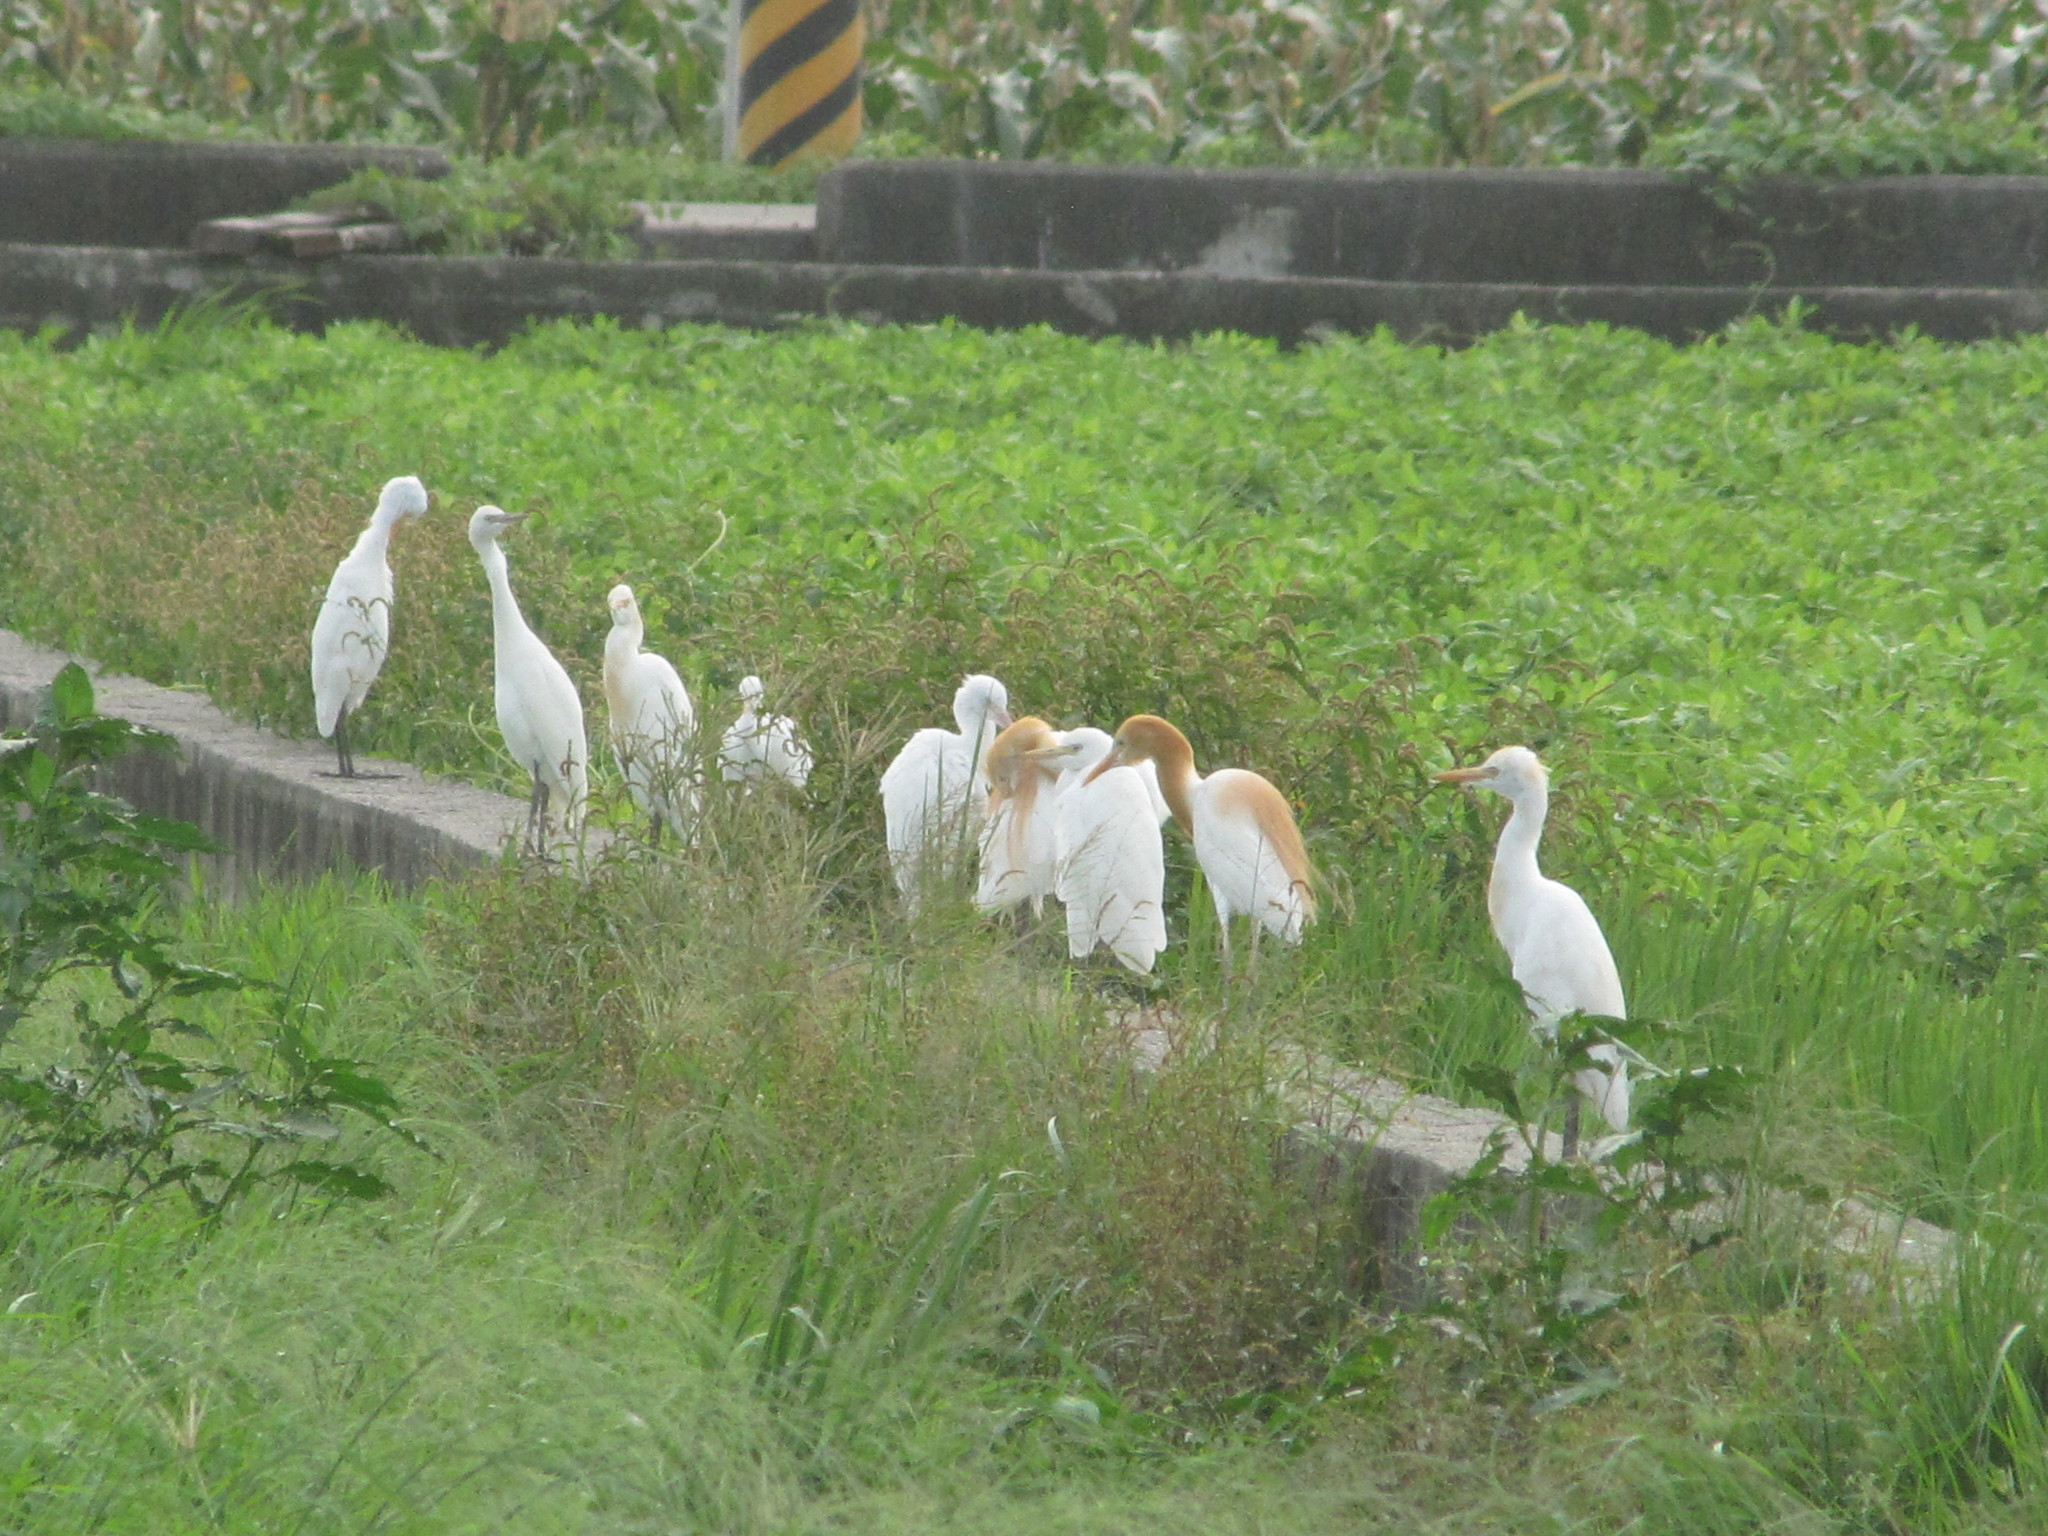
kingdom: Animalia
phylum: Chordata
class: Aves
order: Pelecaniformes
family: Ardeidae
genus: Bubulcus
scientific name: Bubulcus coromandus
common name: Eastern cattle egret
